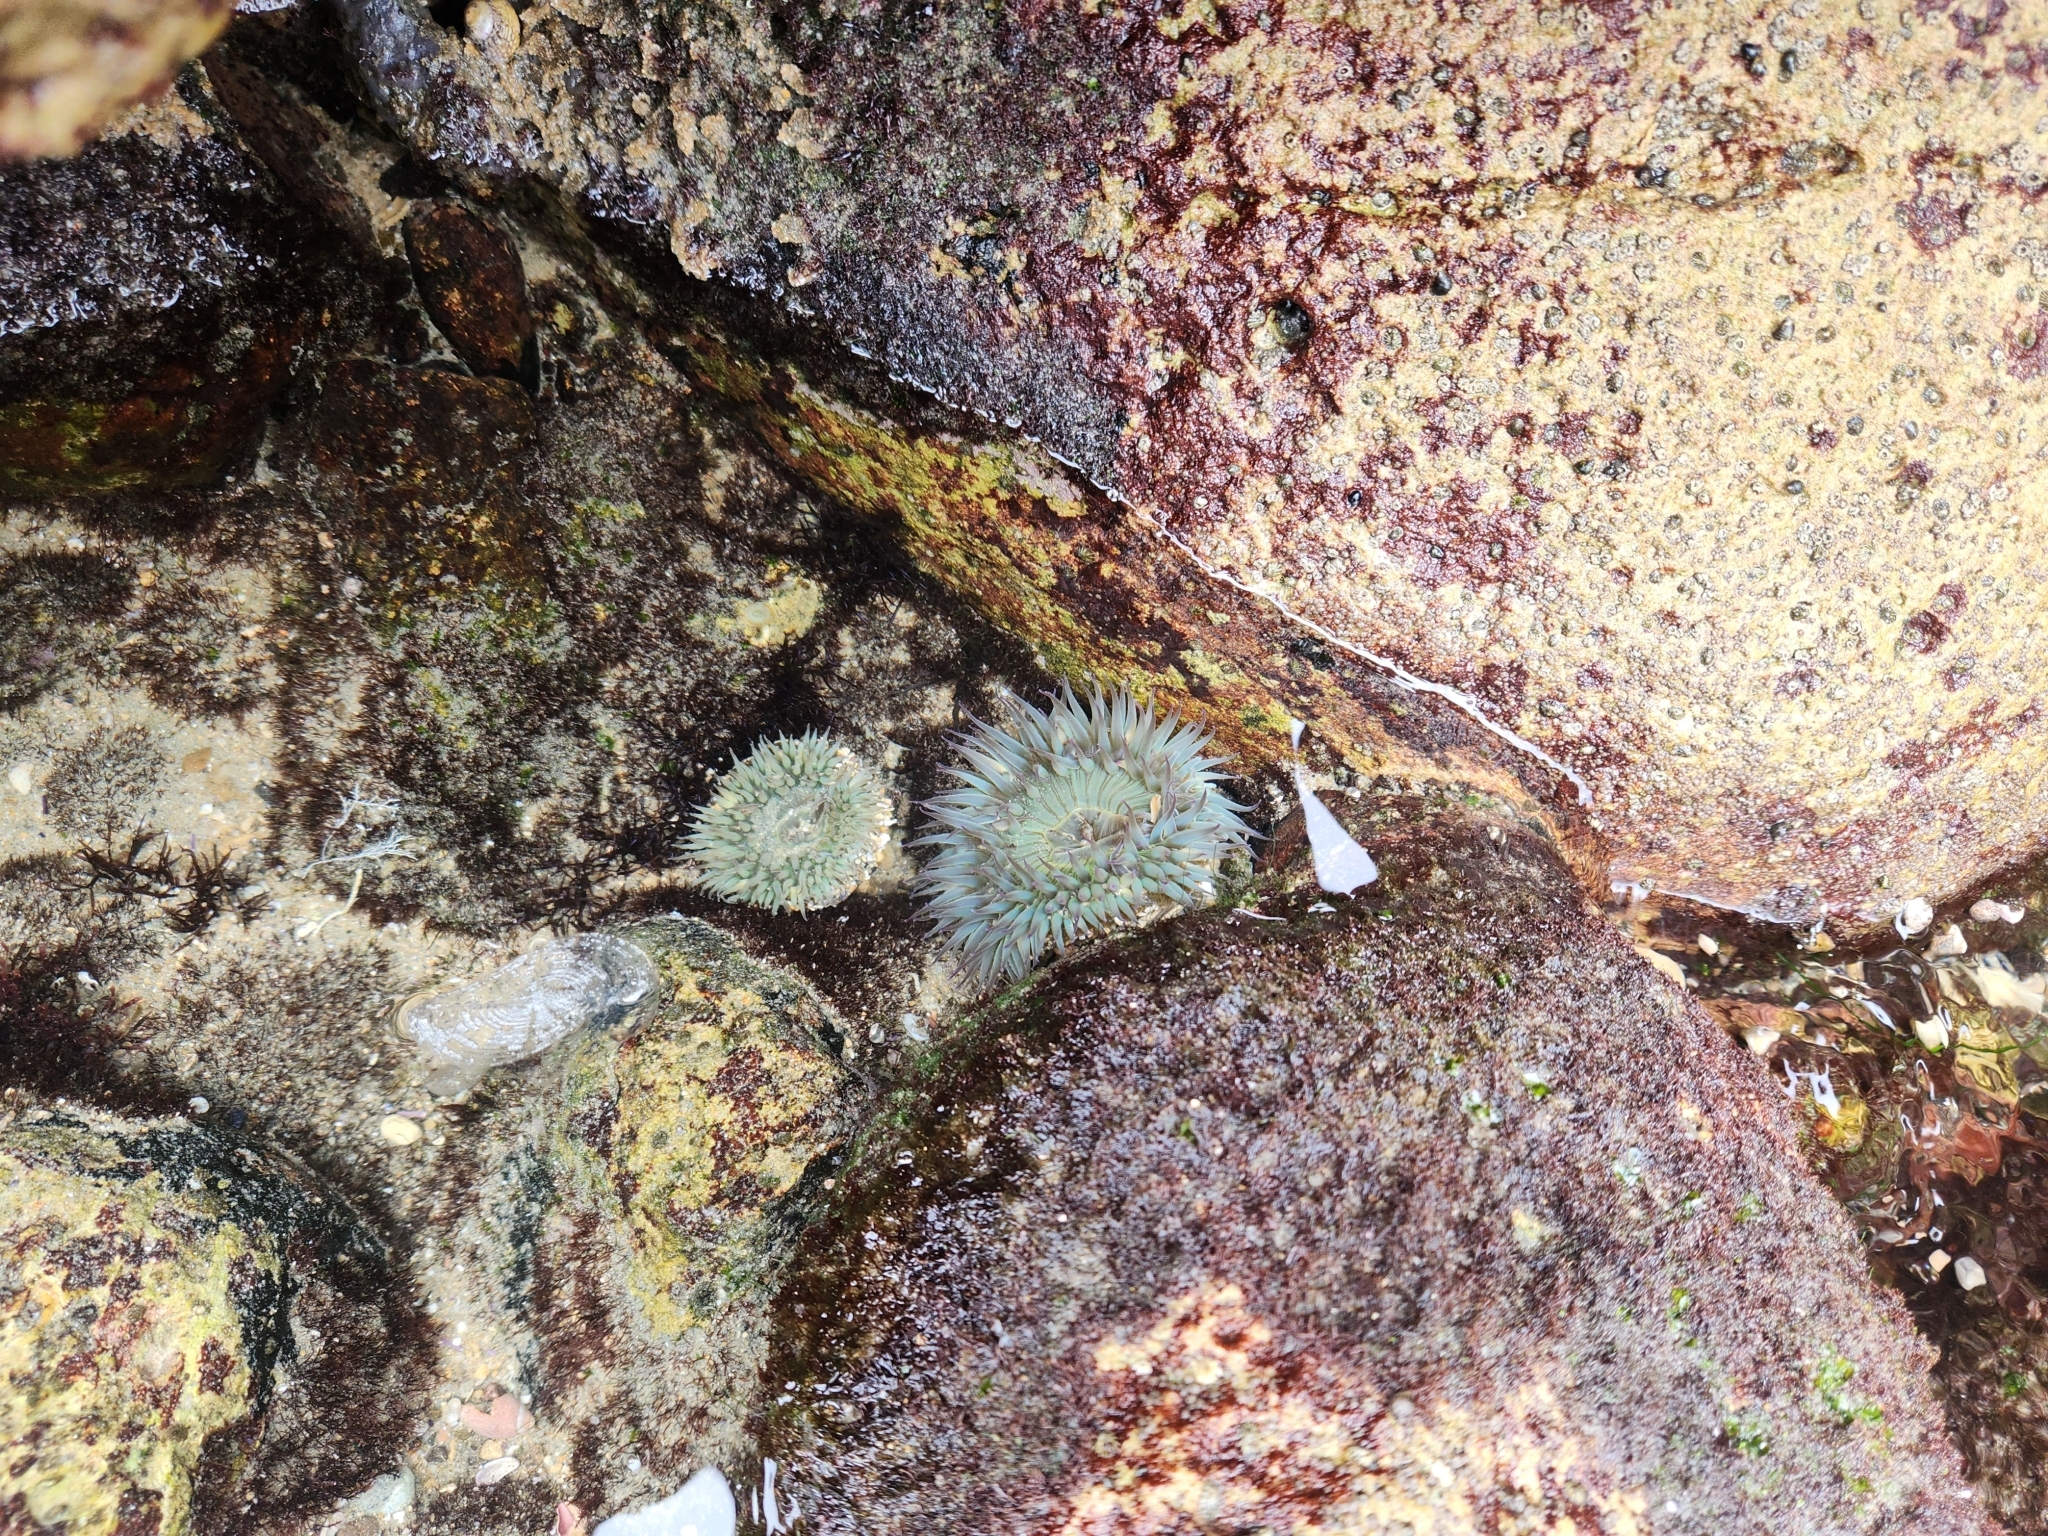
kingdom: Animalia
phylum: Cnidaria
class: Anthozoa
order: Actiniaria
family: Actiniidae
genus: Anthopleura
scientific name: Anthopleura sola
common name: Sun anemone
